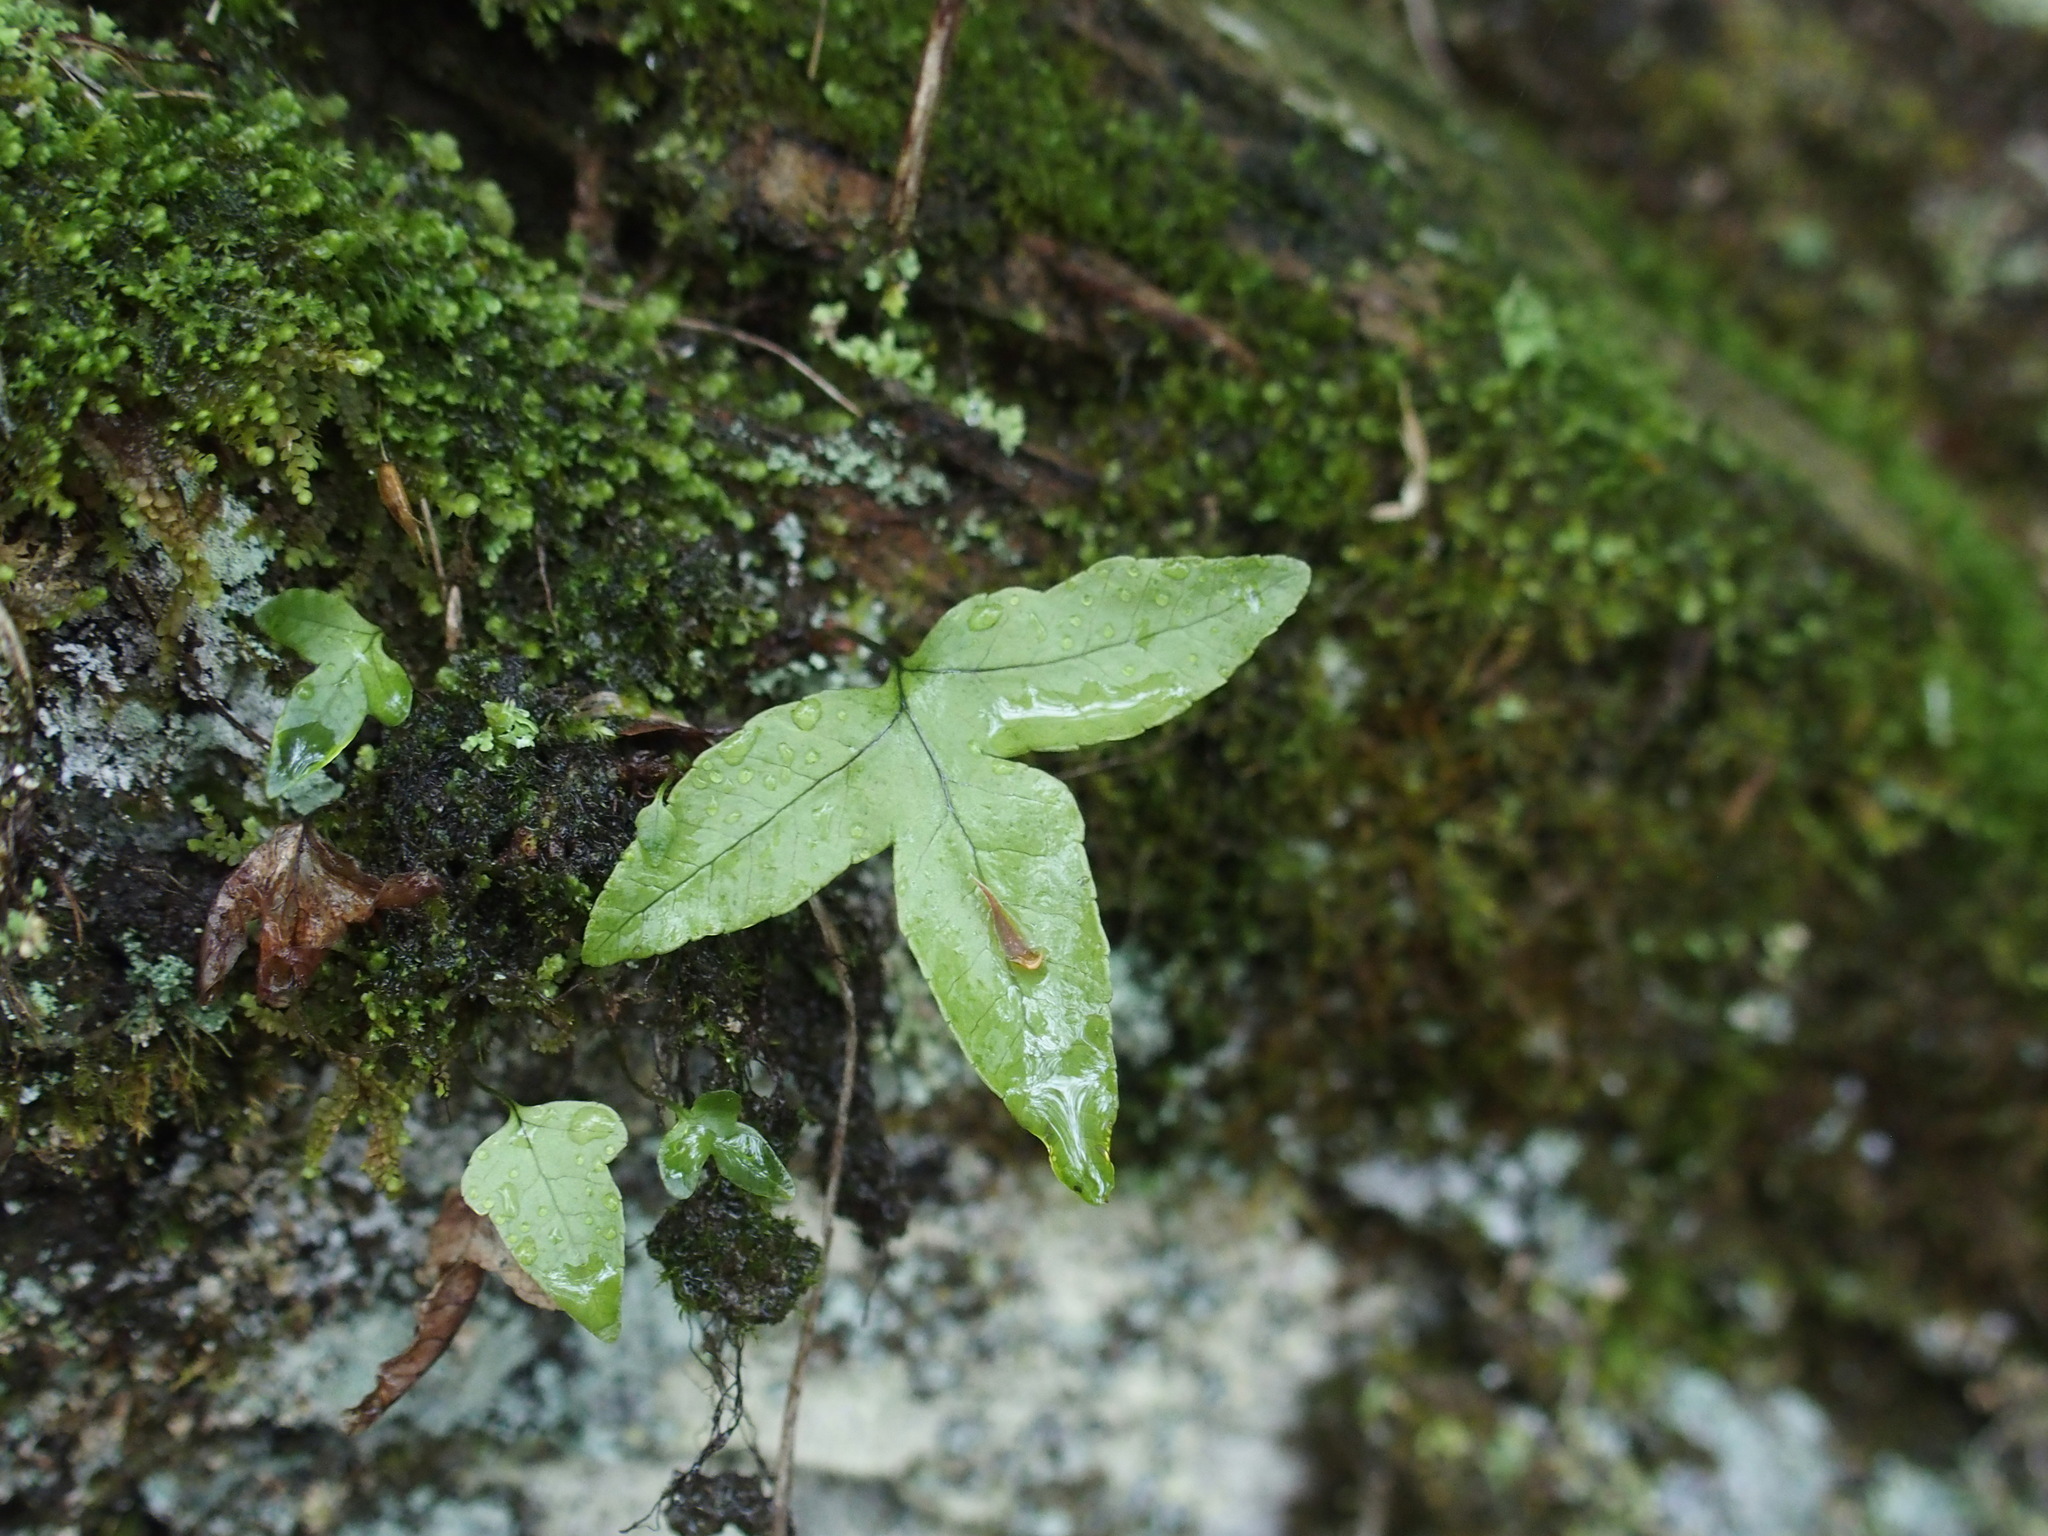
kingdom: Plantae
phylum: Tracheophyta
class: Polypodiopsida
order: Polypodiales
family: Polypodiaceae
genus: Selliguea
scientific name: Selliguea quasidivaricata
